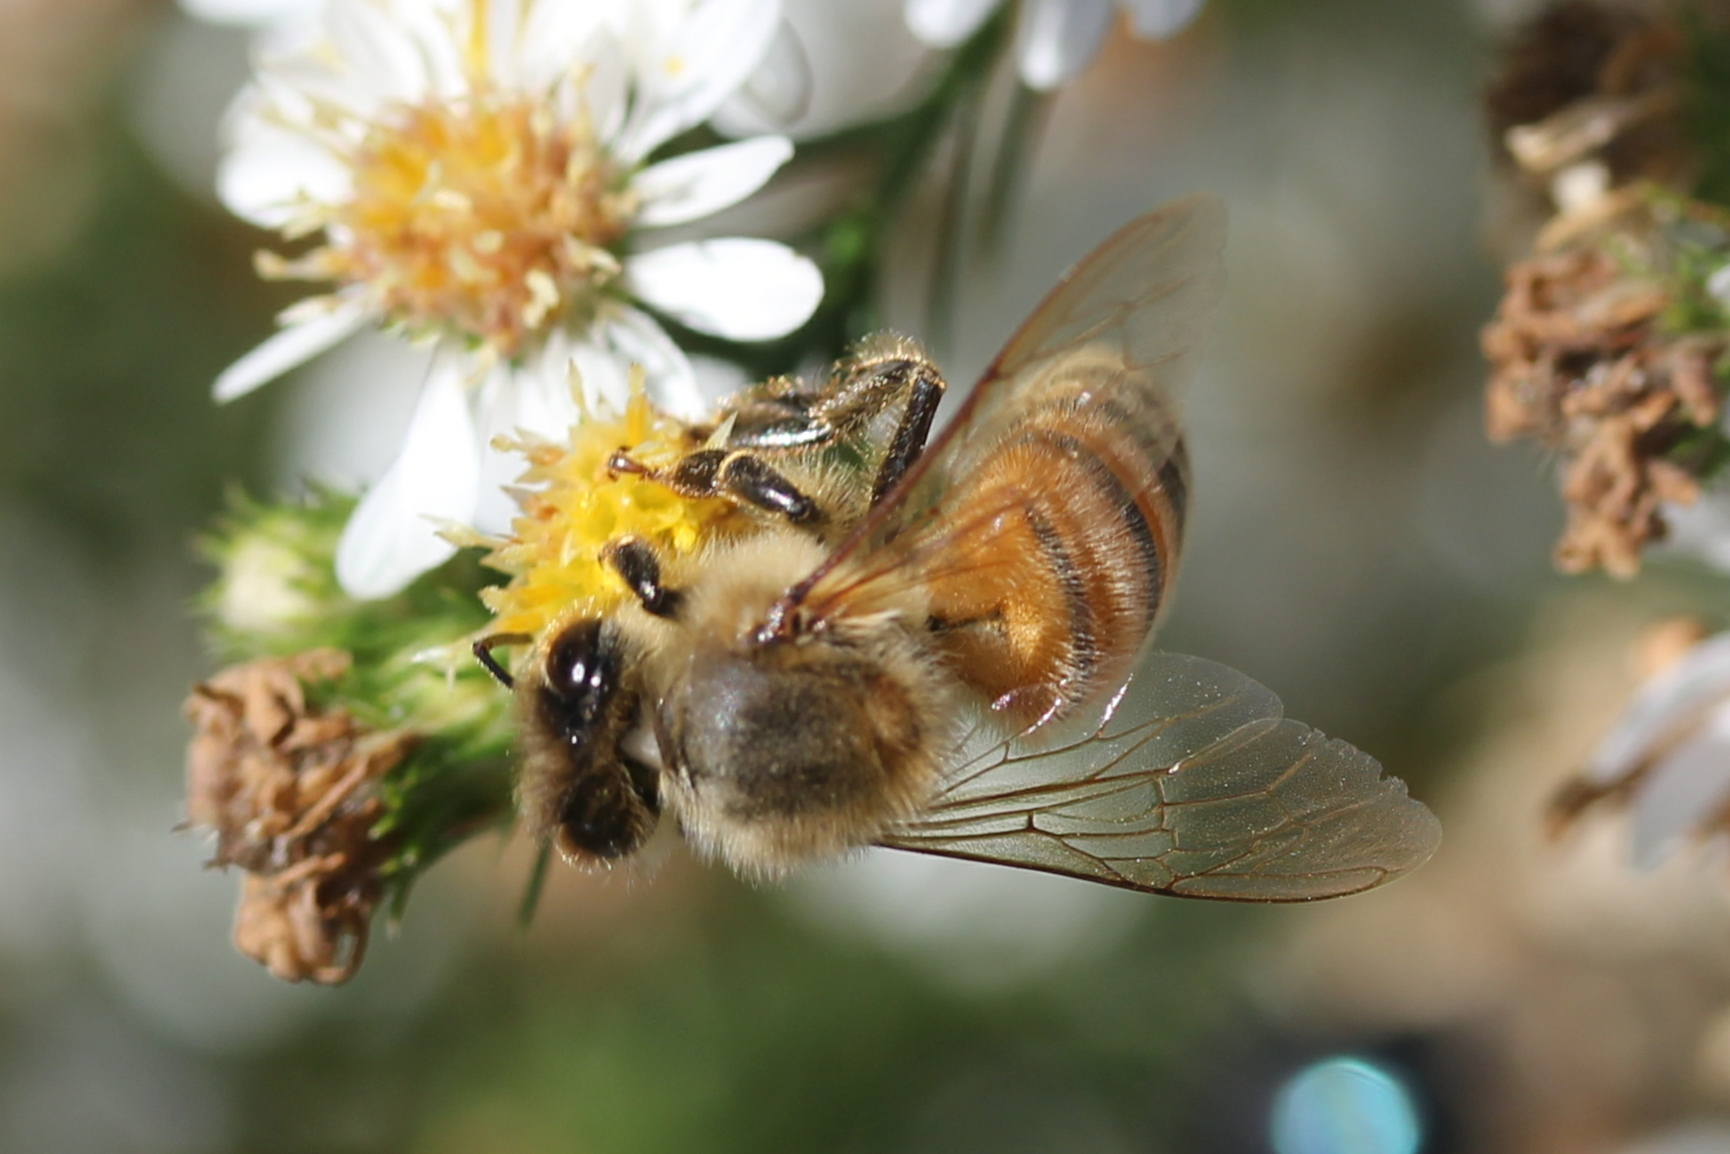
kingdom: Animalia
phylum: Arthropoda
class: Insecta
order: Hymenoptera
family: Apidae
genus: Apis
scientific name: Apis mellifera
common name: Honey bee
